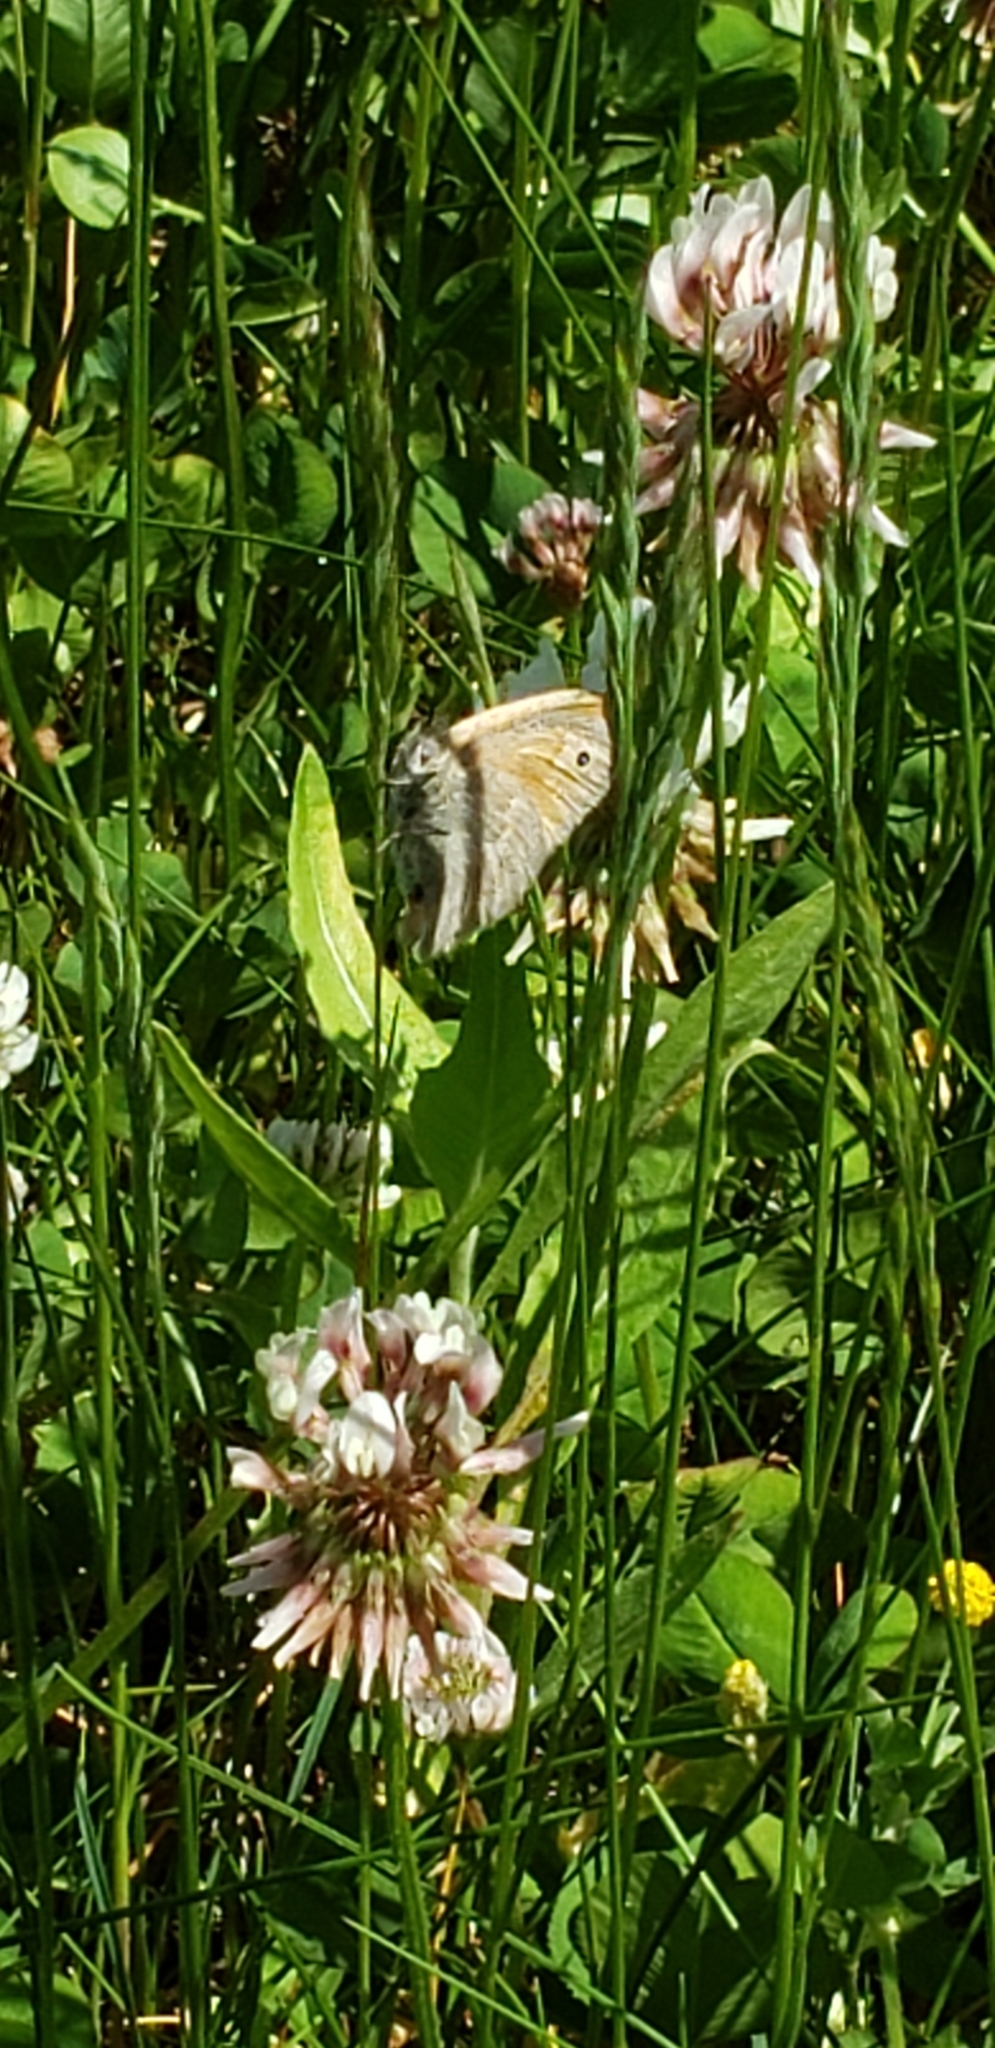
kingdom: Animalia
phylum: Arthropoda
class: Insecta
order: Lepidoptera
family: Nymphalidae
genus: Coenonympha
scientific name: Coenonympha california
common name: Common ringlet
